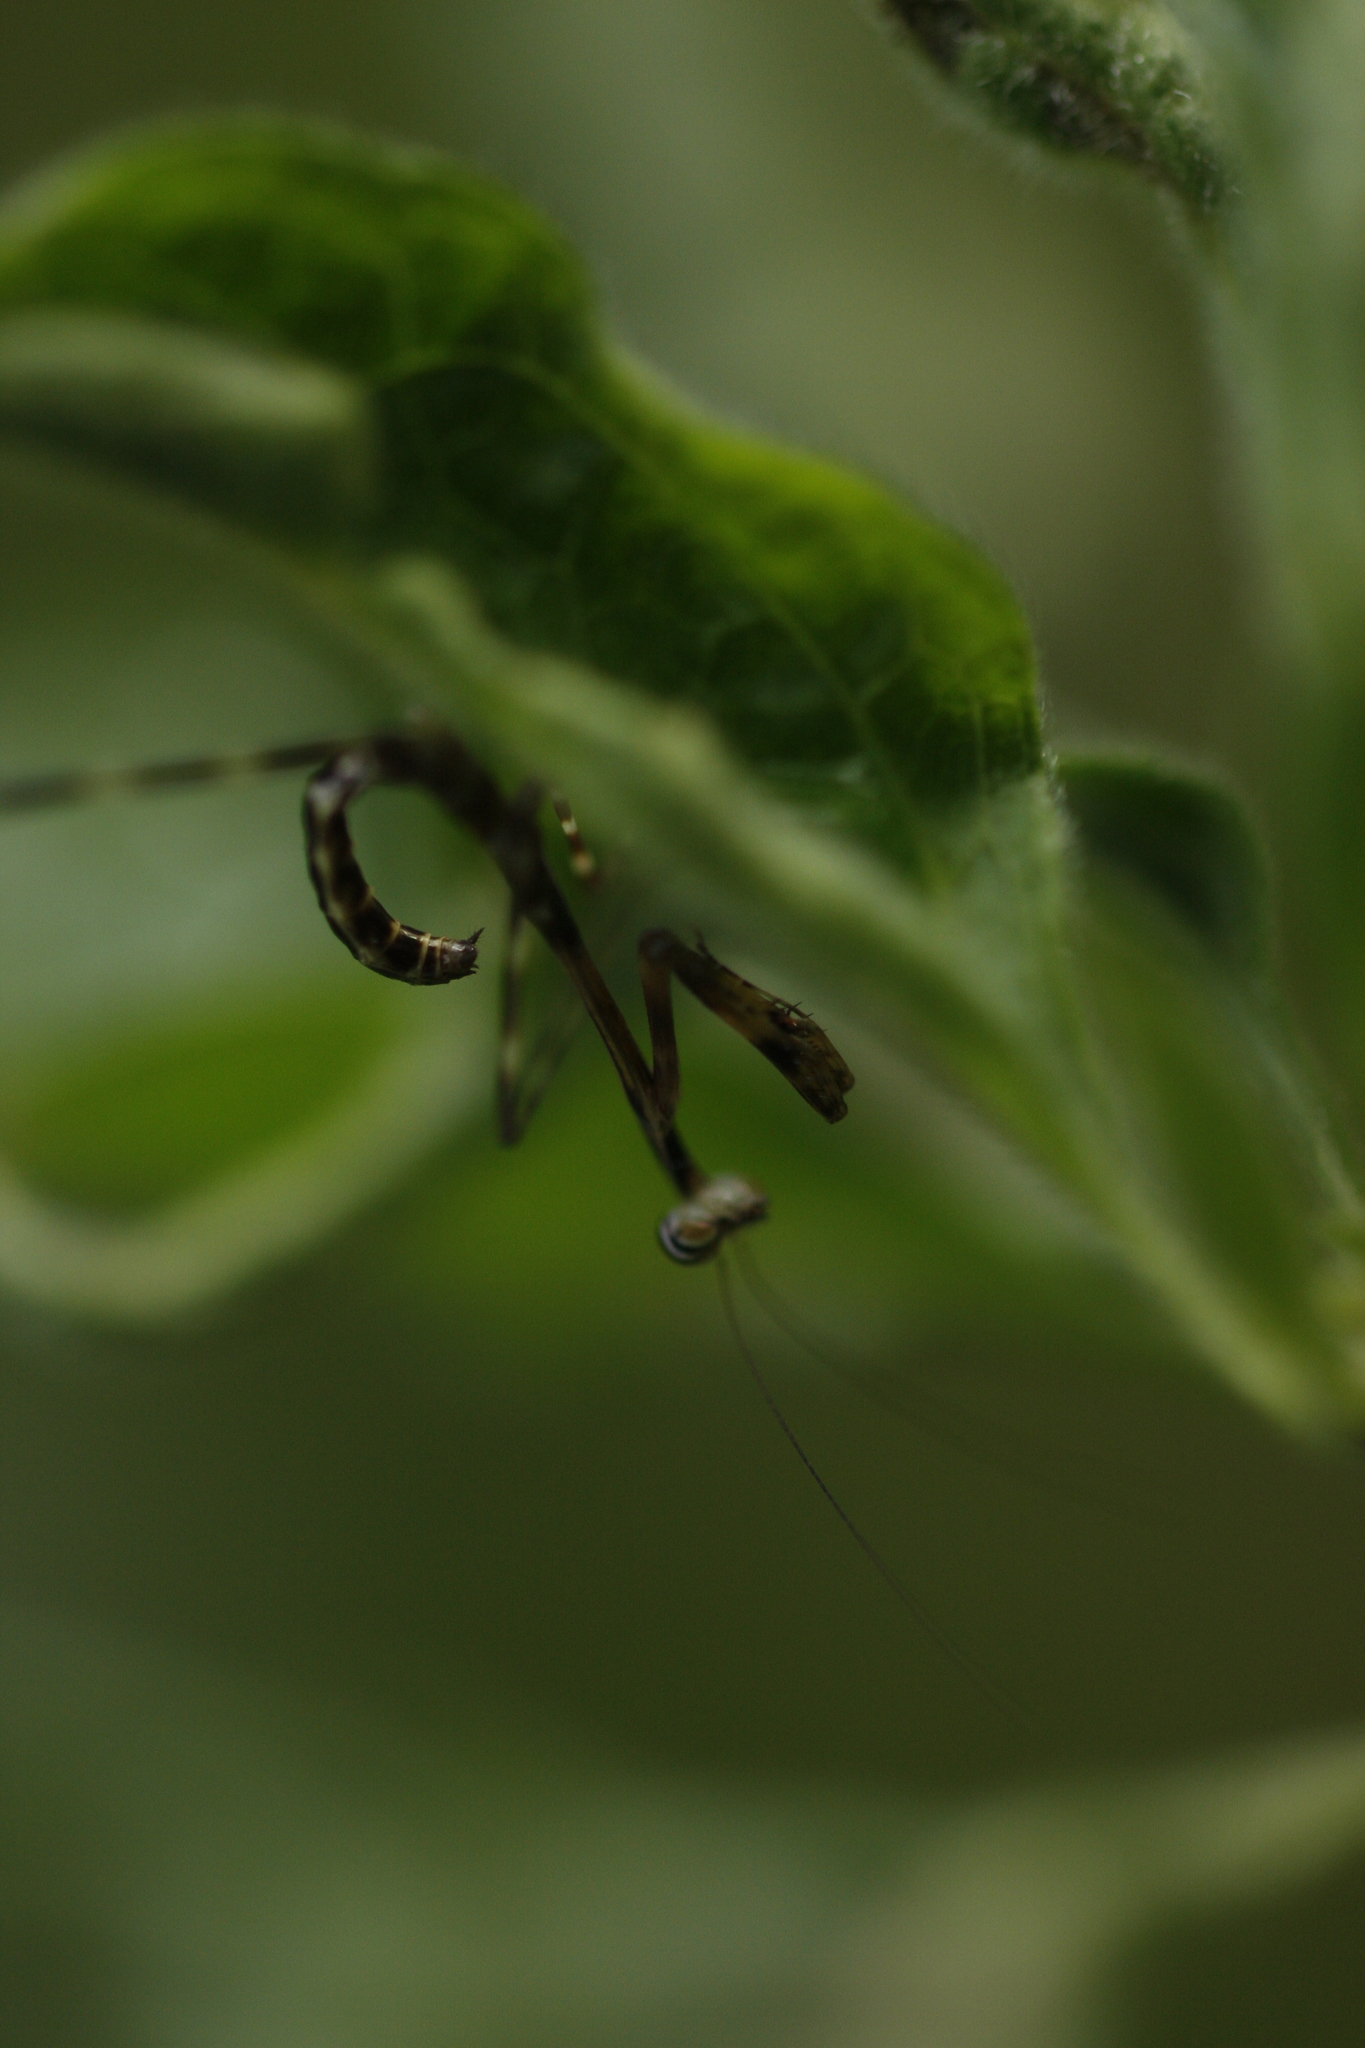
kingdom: Animalia
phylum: Arthropoda
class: Insecta
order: Mantodea
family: Deroplatyidae
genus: Indomenella
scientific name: Indomenella indica
